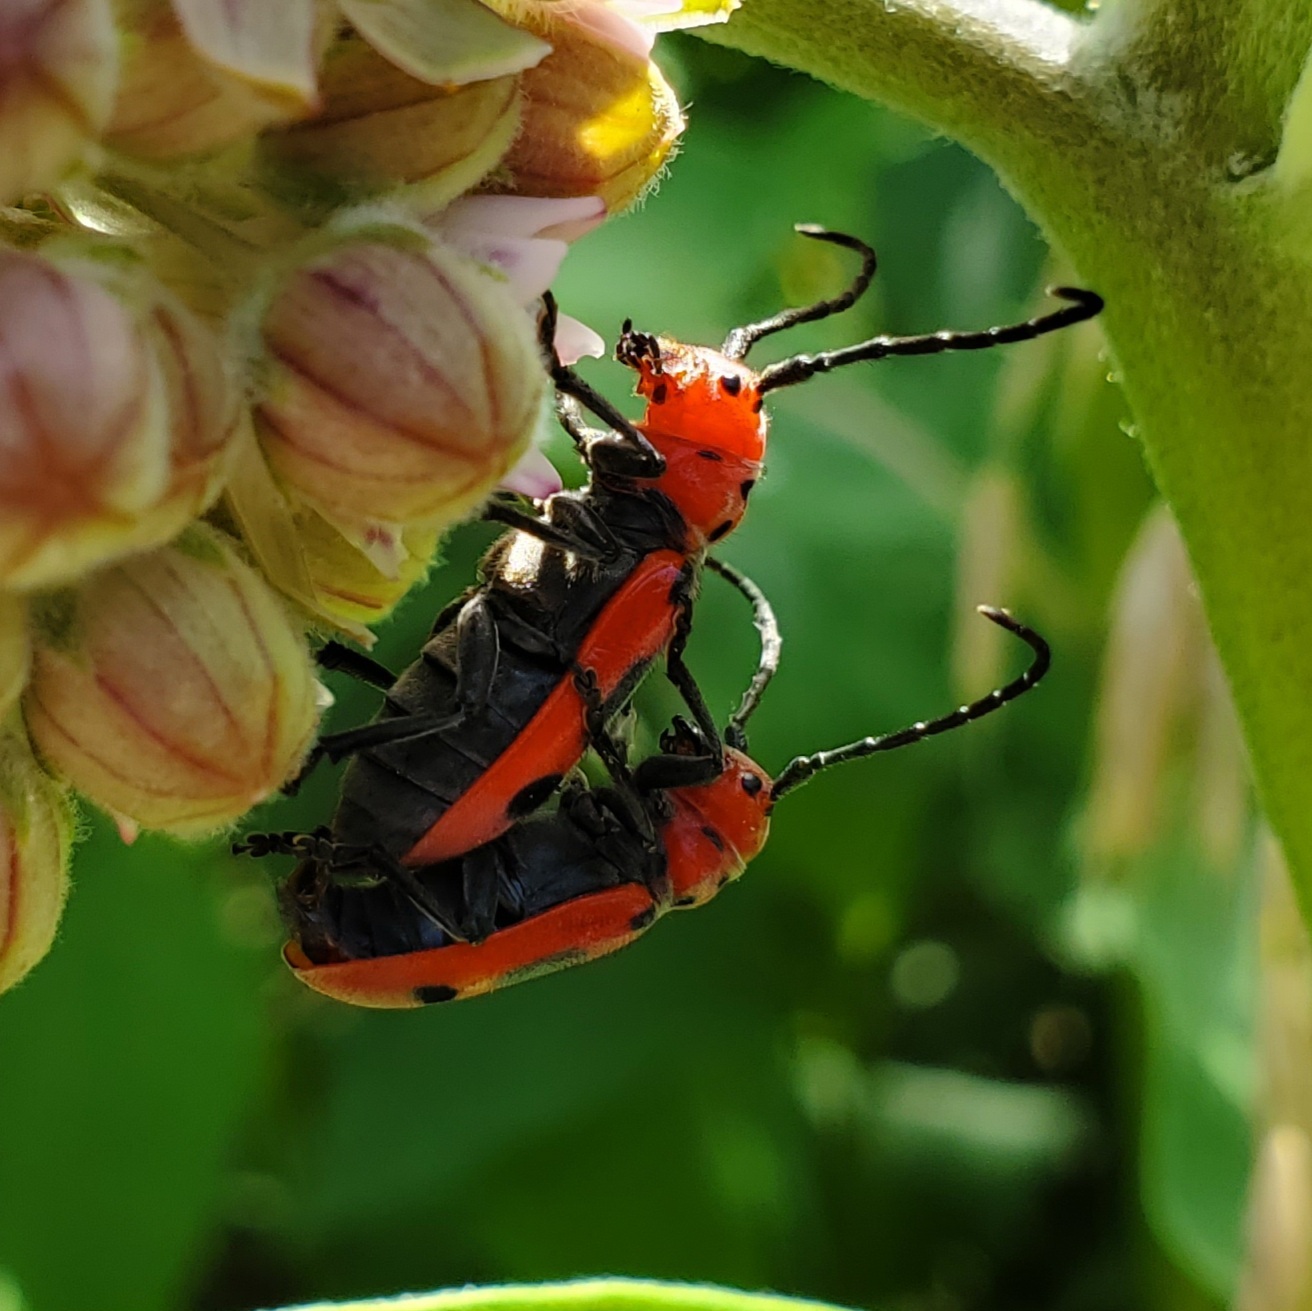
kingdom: Animalia
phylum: Arthropoda
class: Insecta
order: Coleoptera
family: Cerambycidae
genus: Tetraopes
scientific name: Tetraopes tetrophthalmus
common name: Red milkweed beetle
